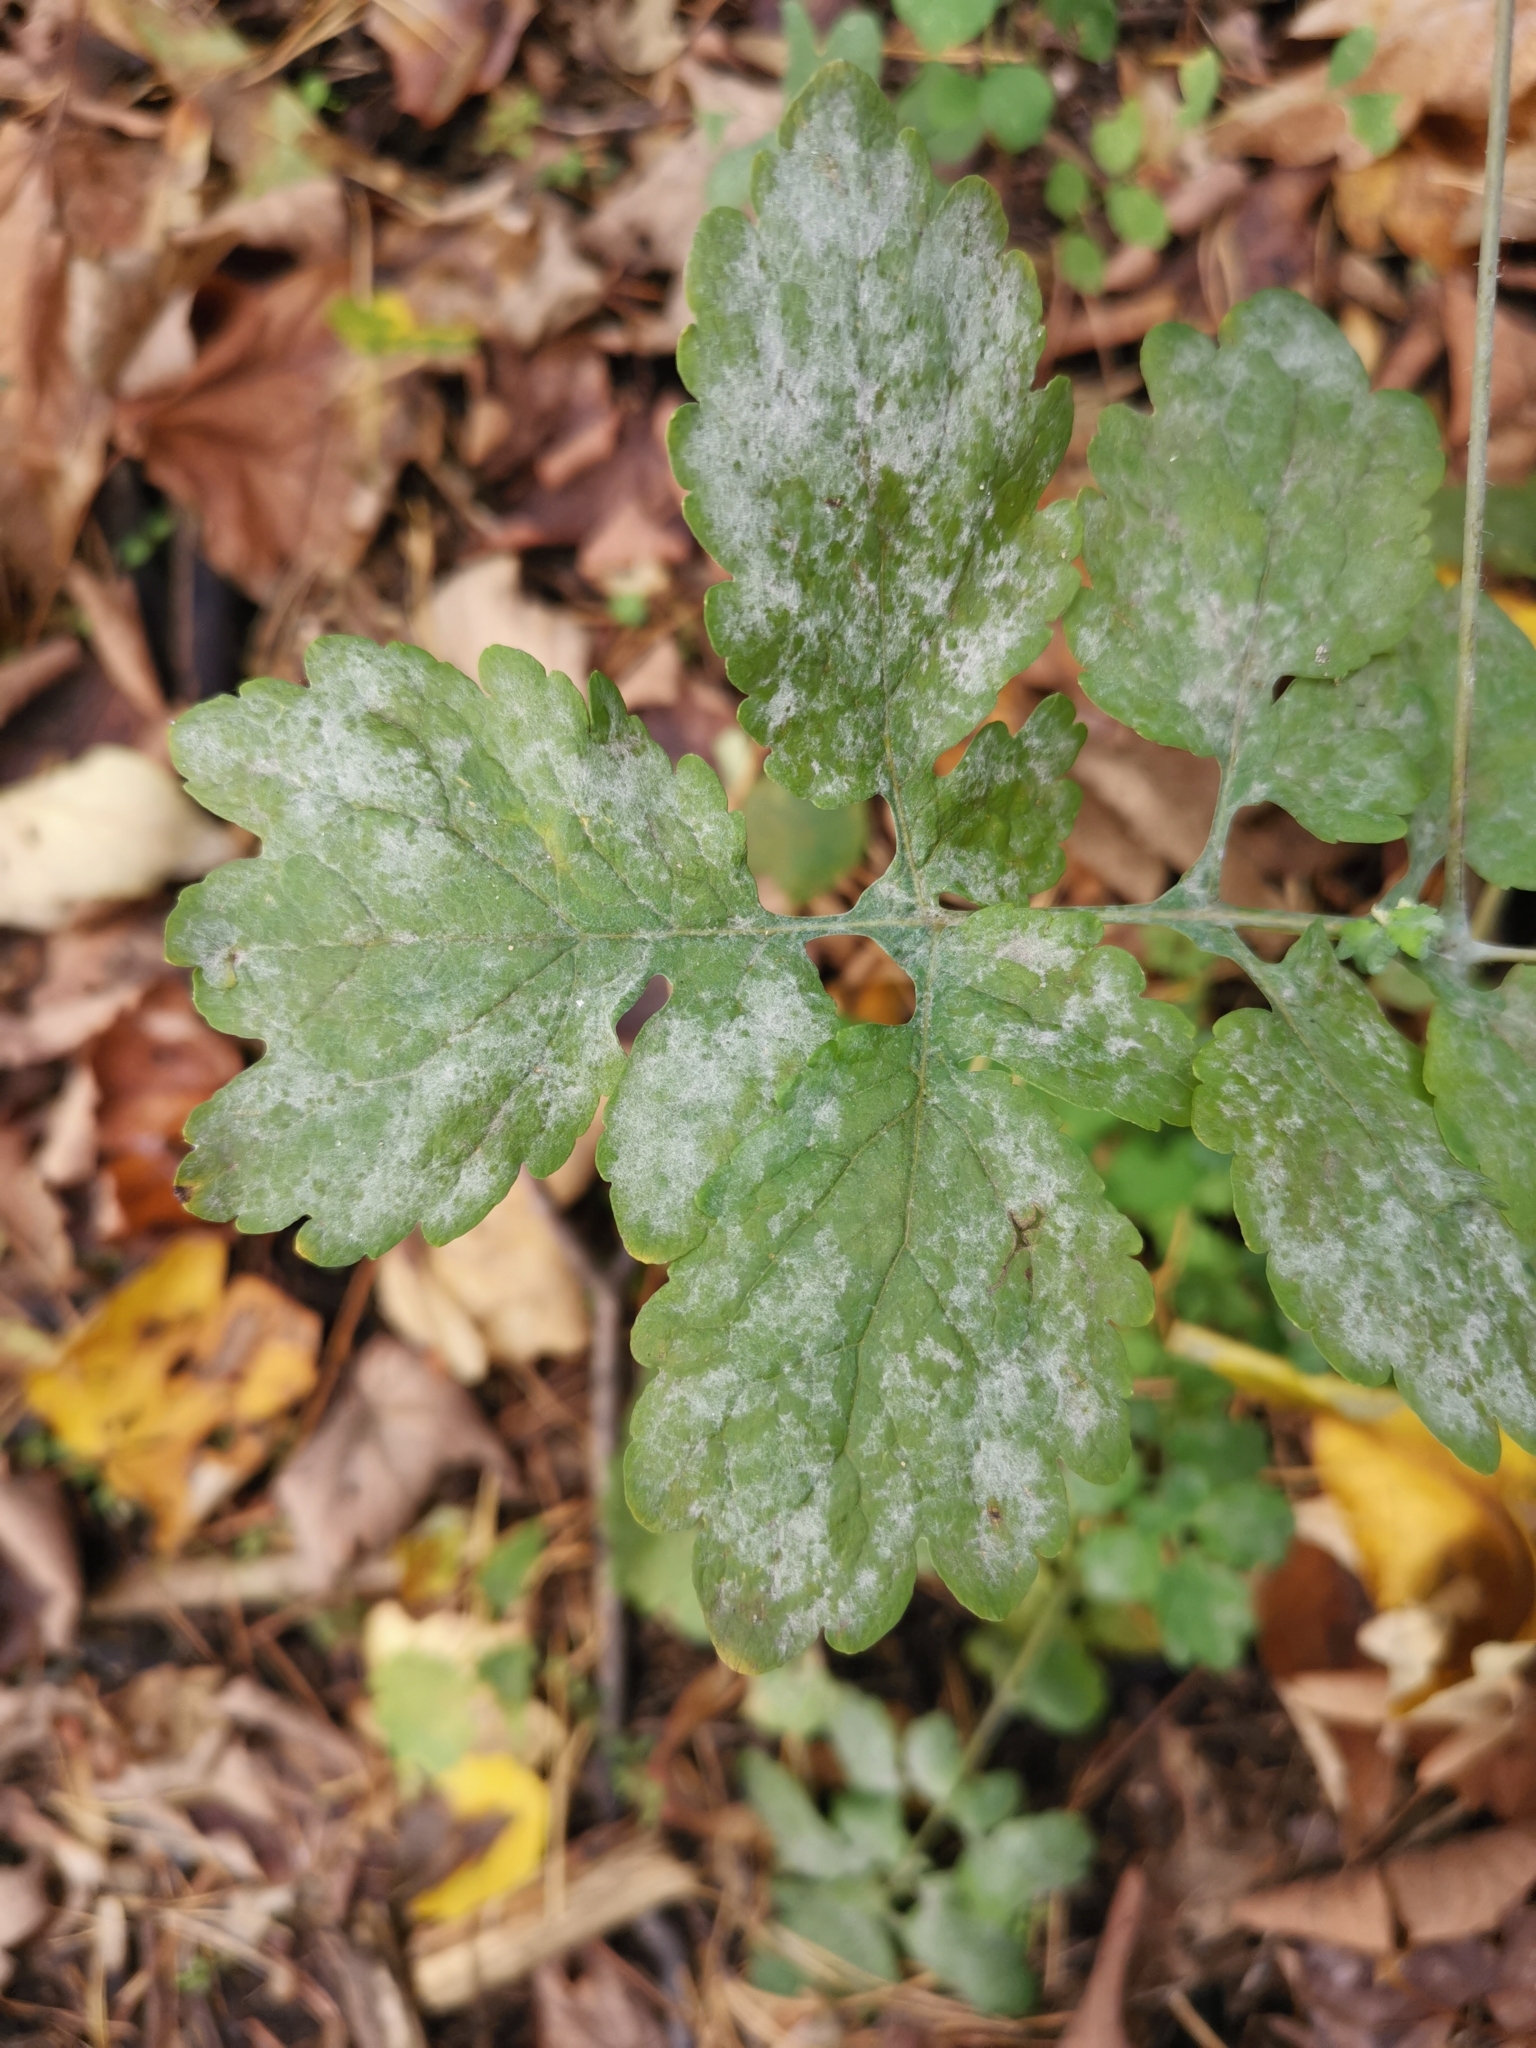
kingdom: Fungi
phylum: Ascomycota
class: Leotiomycetes
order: Helotiales
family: Erysiphaceae
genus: Erysiphe
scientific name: Erysiphe macleayae
